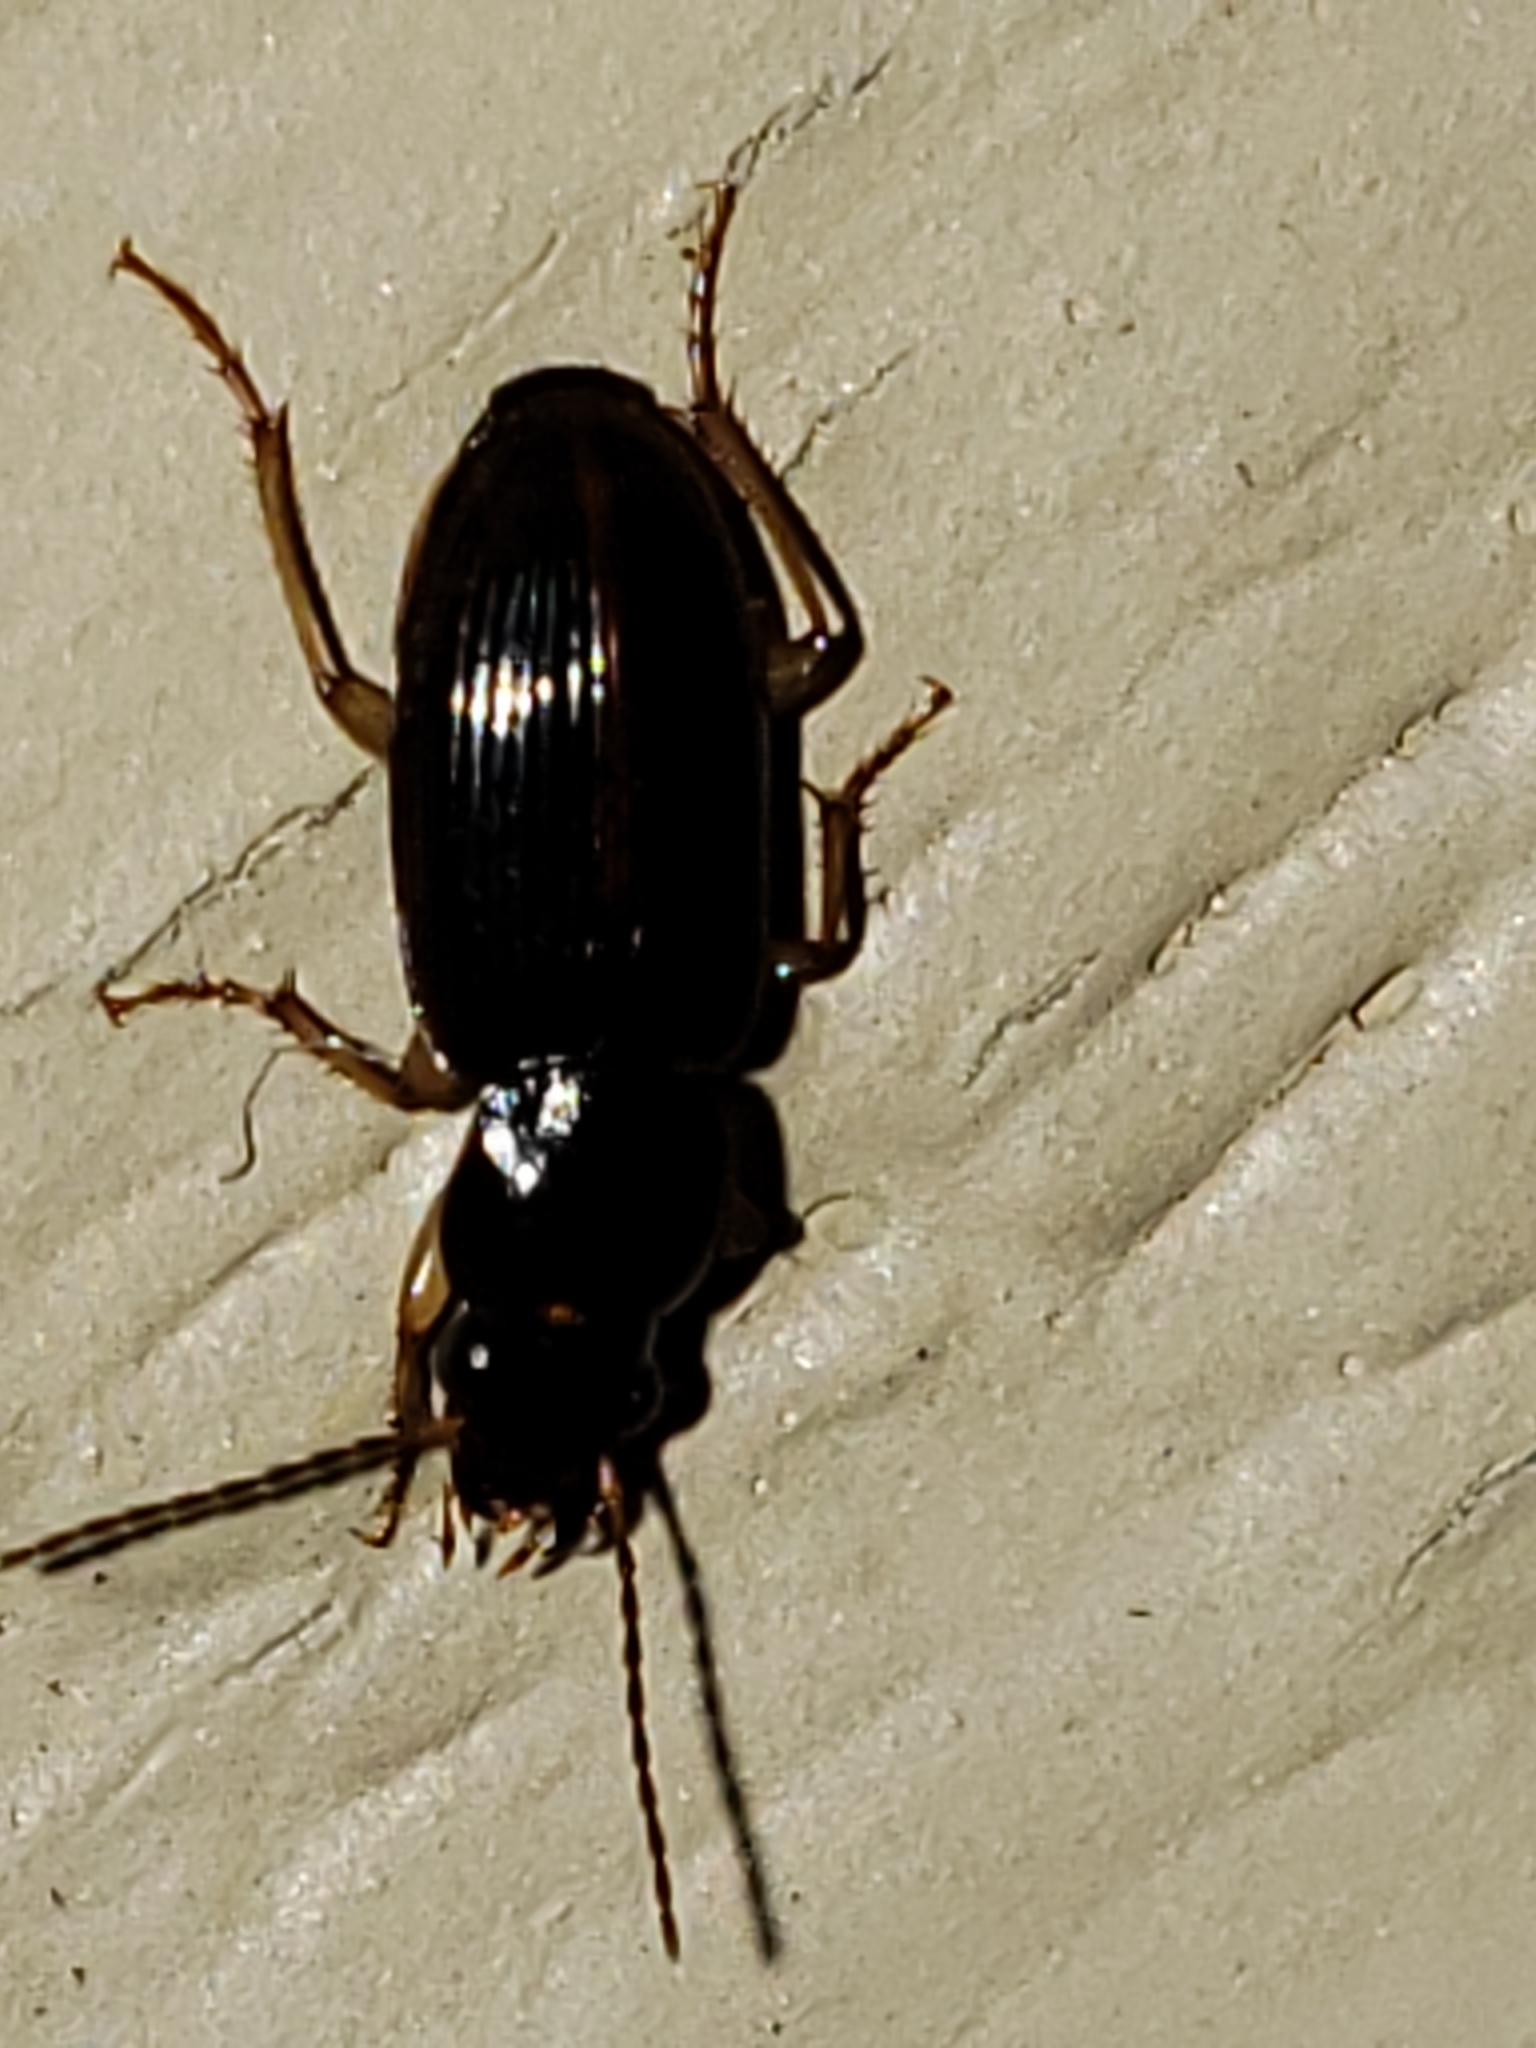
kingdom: Animalia
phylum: Arthropoda
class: Insecta
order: Coleoptera
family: Carabidae
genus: Stenolophus
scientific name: Stenolophus ochropezus
